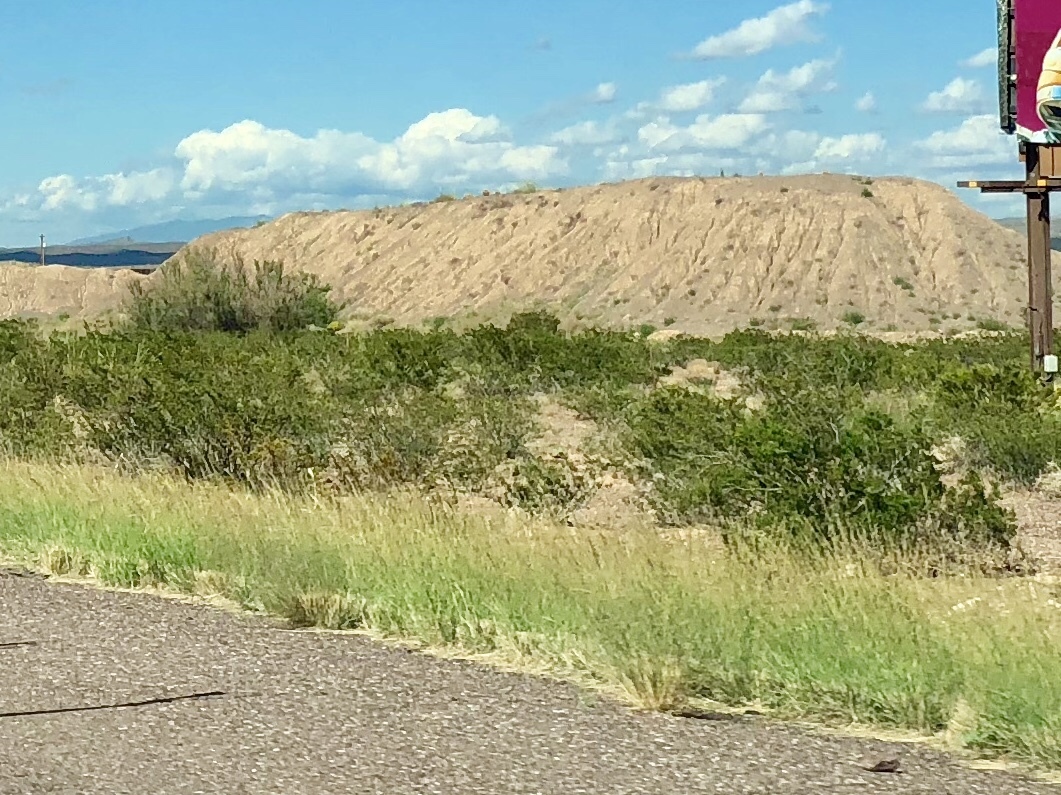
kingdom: Plantae
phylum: Tracheophyta
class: Magnoliopsida
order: Zygophyllales
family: Zygophyllaceae
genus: Larrea
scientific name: Larrea tridentata
